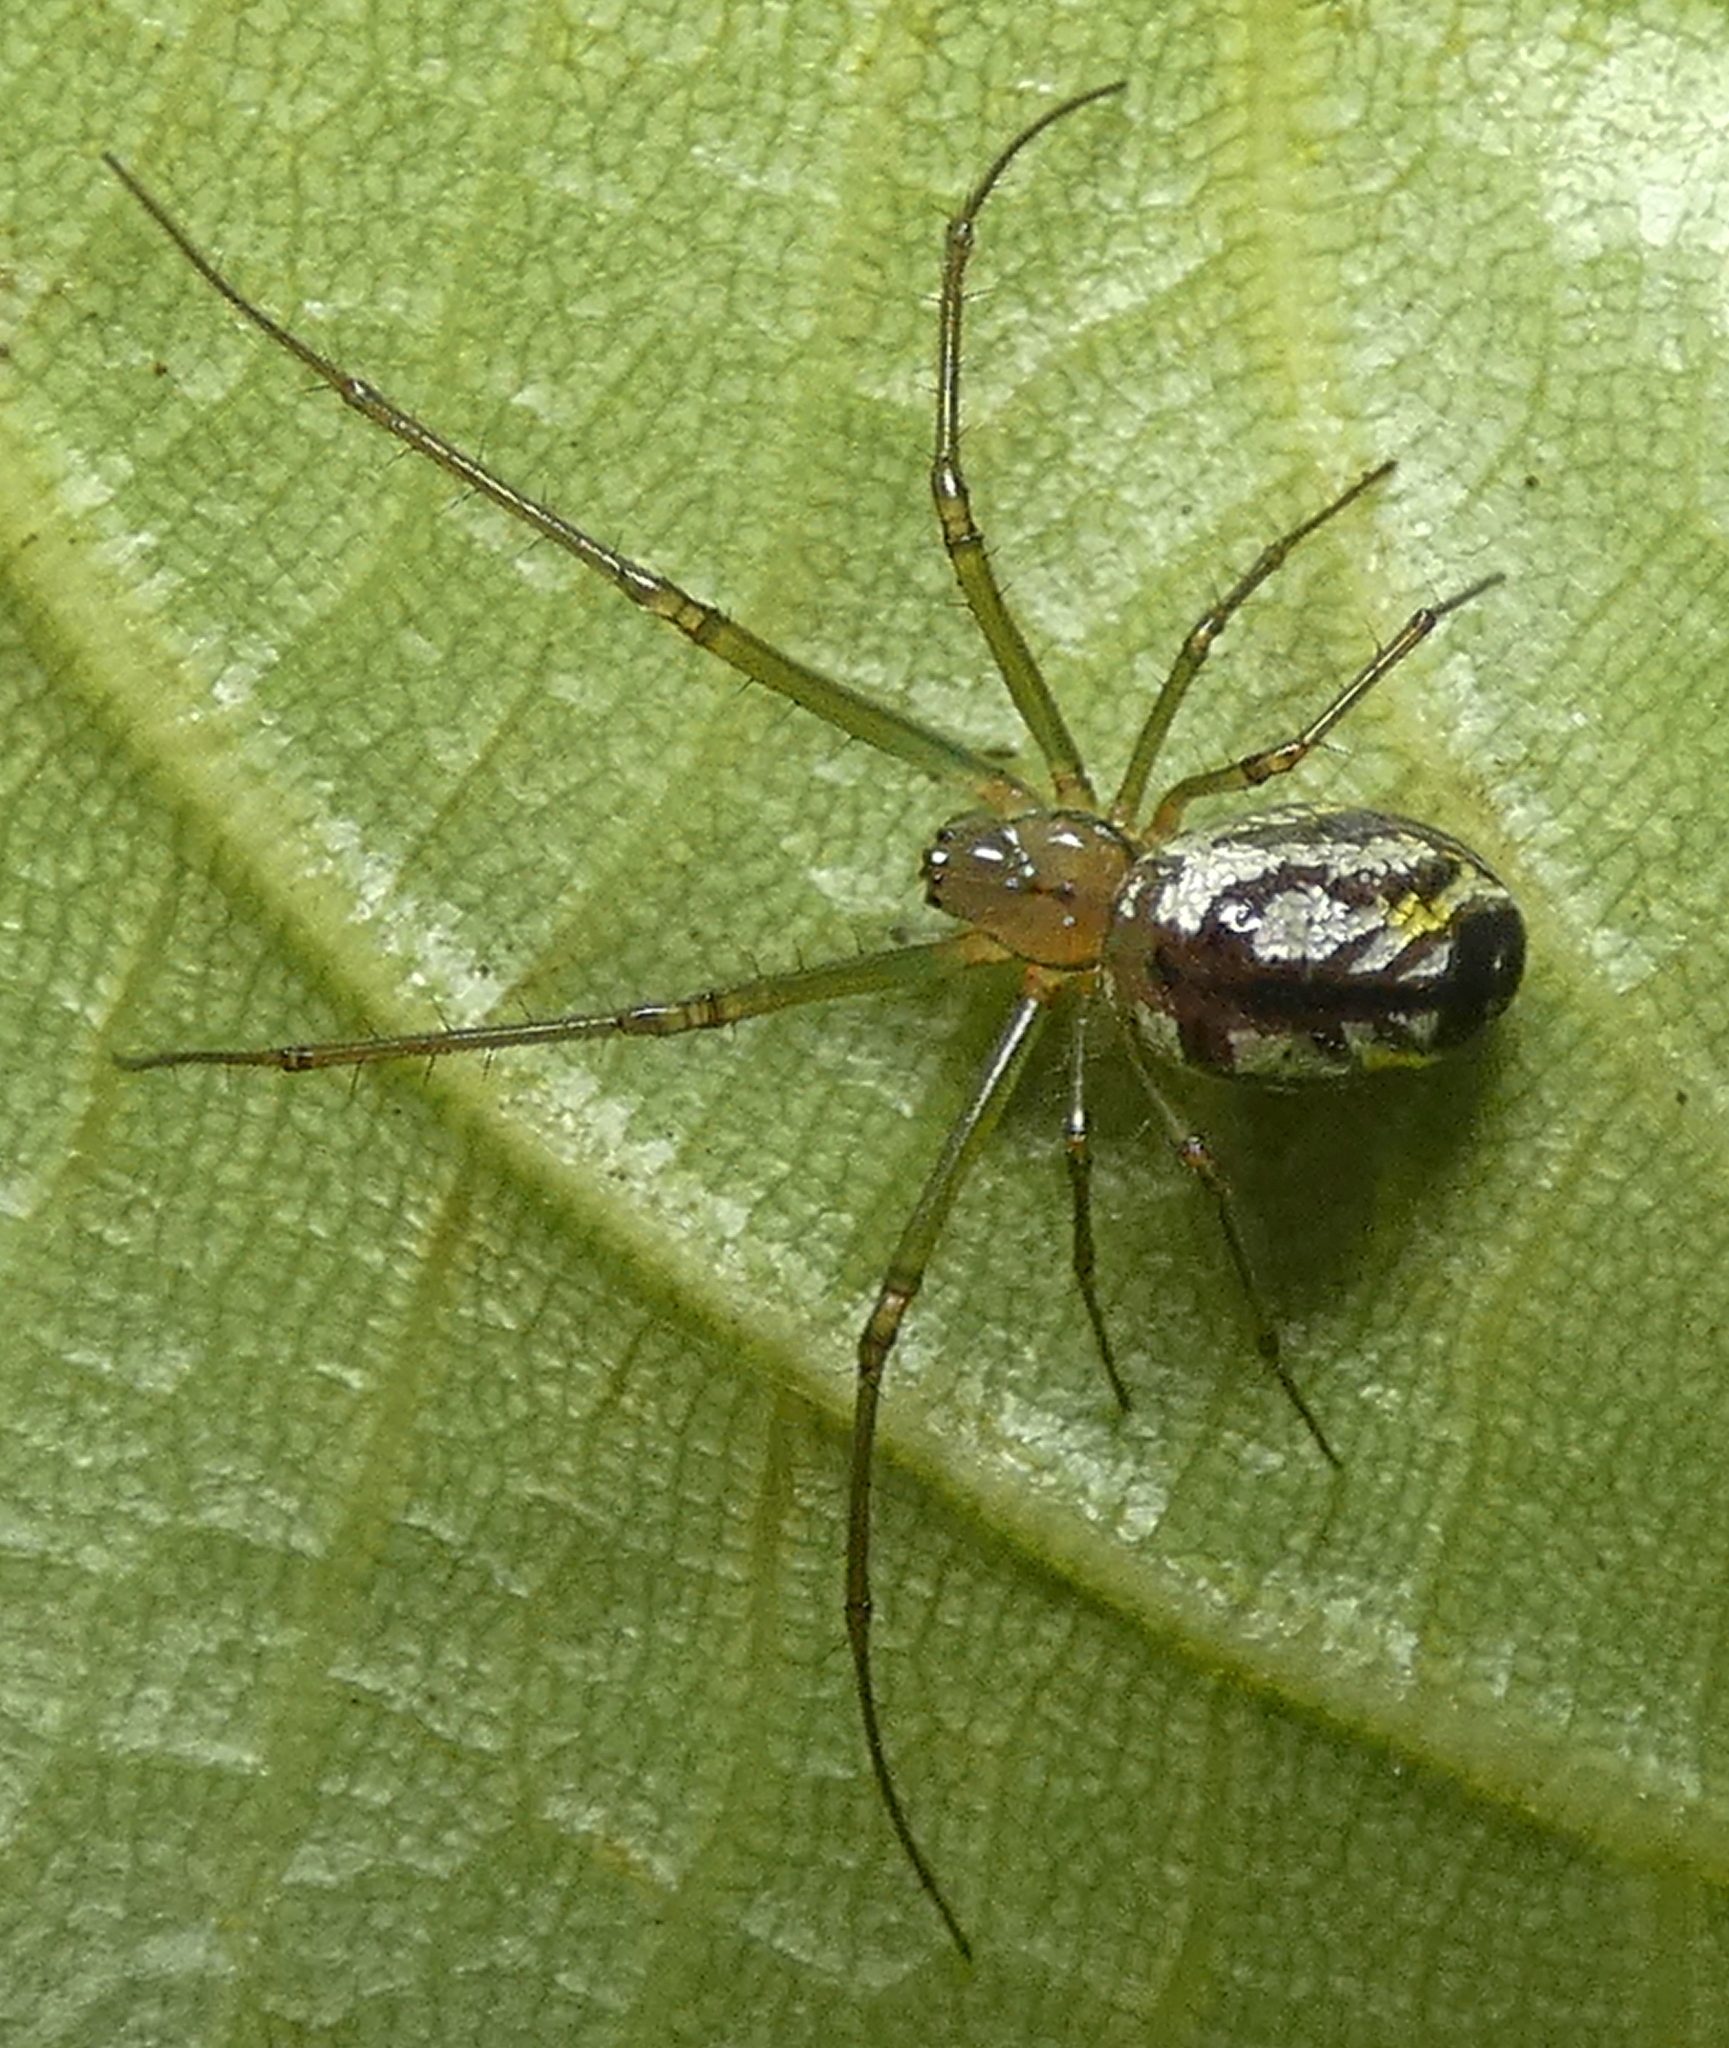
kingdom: Animalia
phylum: Arthropoda
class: Arachnida
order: Araneae
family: Tetragnathidae
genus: Leucauge
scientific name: Leucauge volupis
